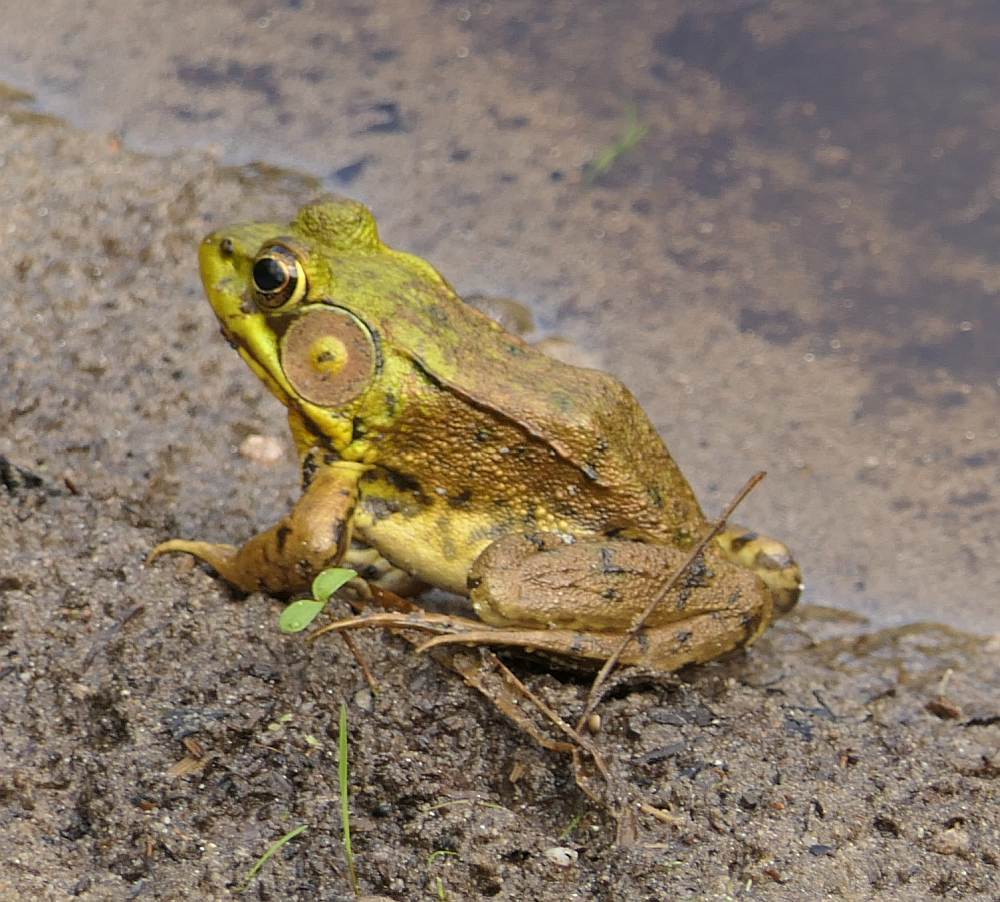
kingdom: Animalia
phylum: Chordata
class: Amphibia
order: Anura
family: Ranidae
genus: Lithobates
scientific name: Lithobates clamitans
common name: Green frog
